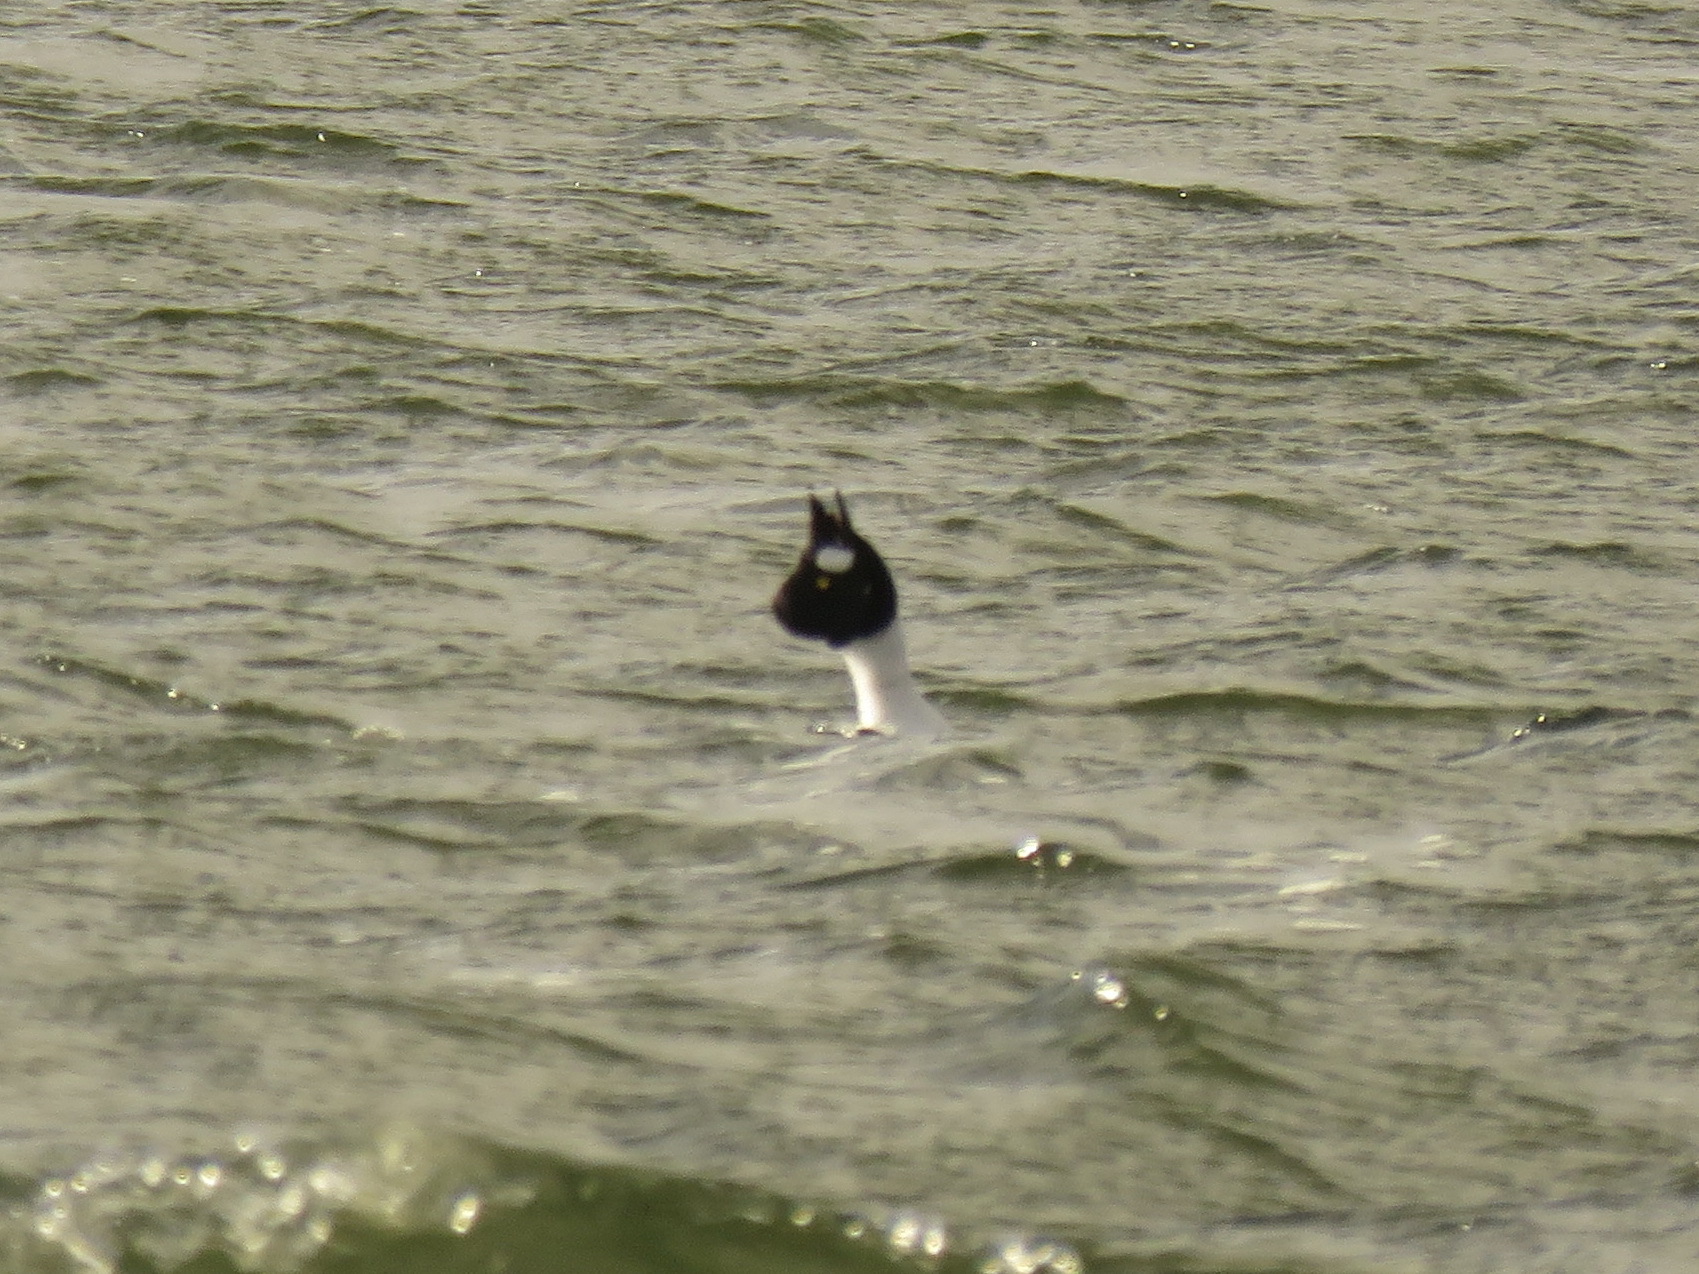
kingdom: Animalia
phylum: Chordata
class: Aves
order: Anseriformes
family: Anatidae
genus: Bucephala
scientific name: Bucephala clangula
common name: Common goldeneye
